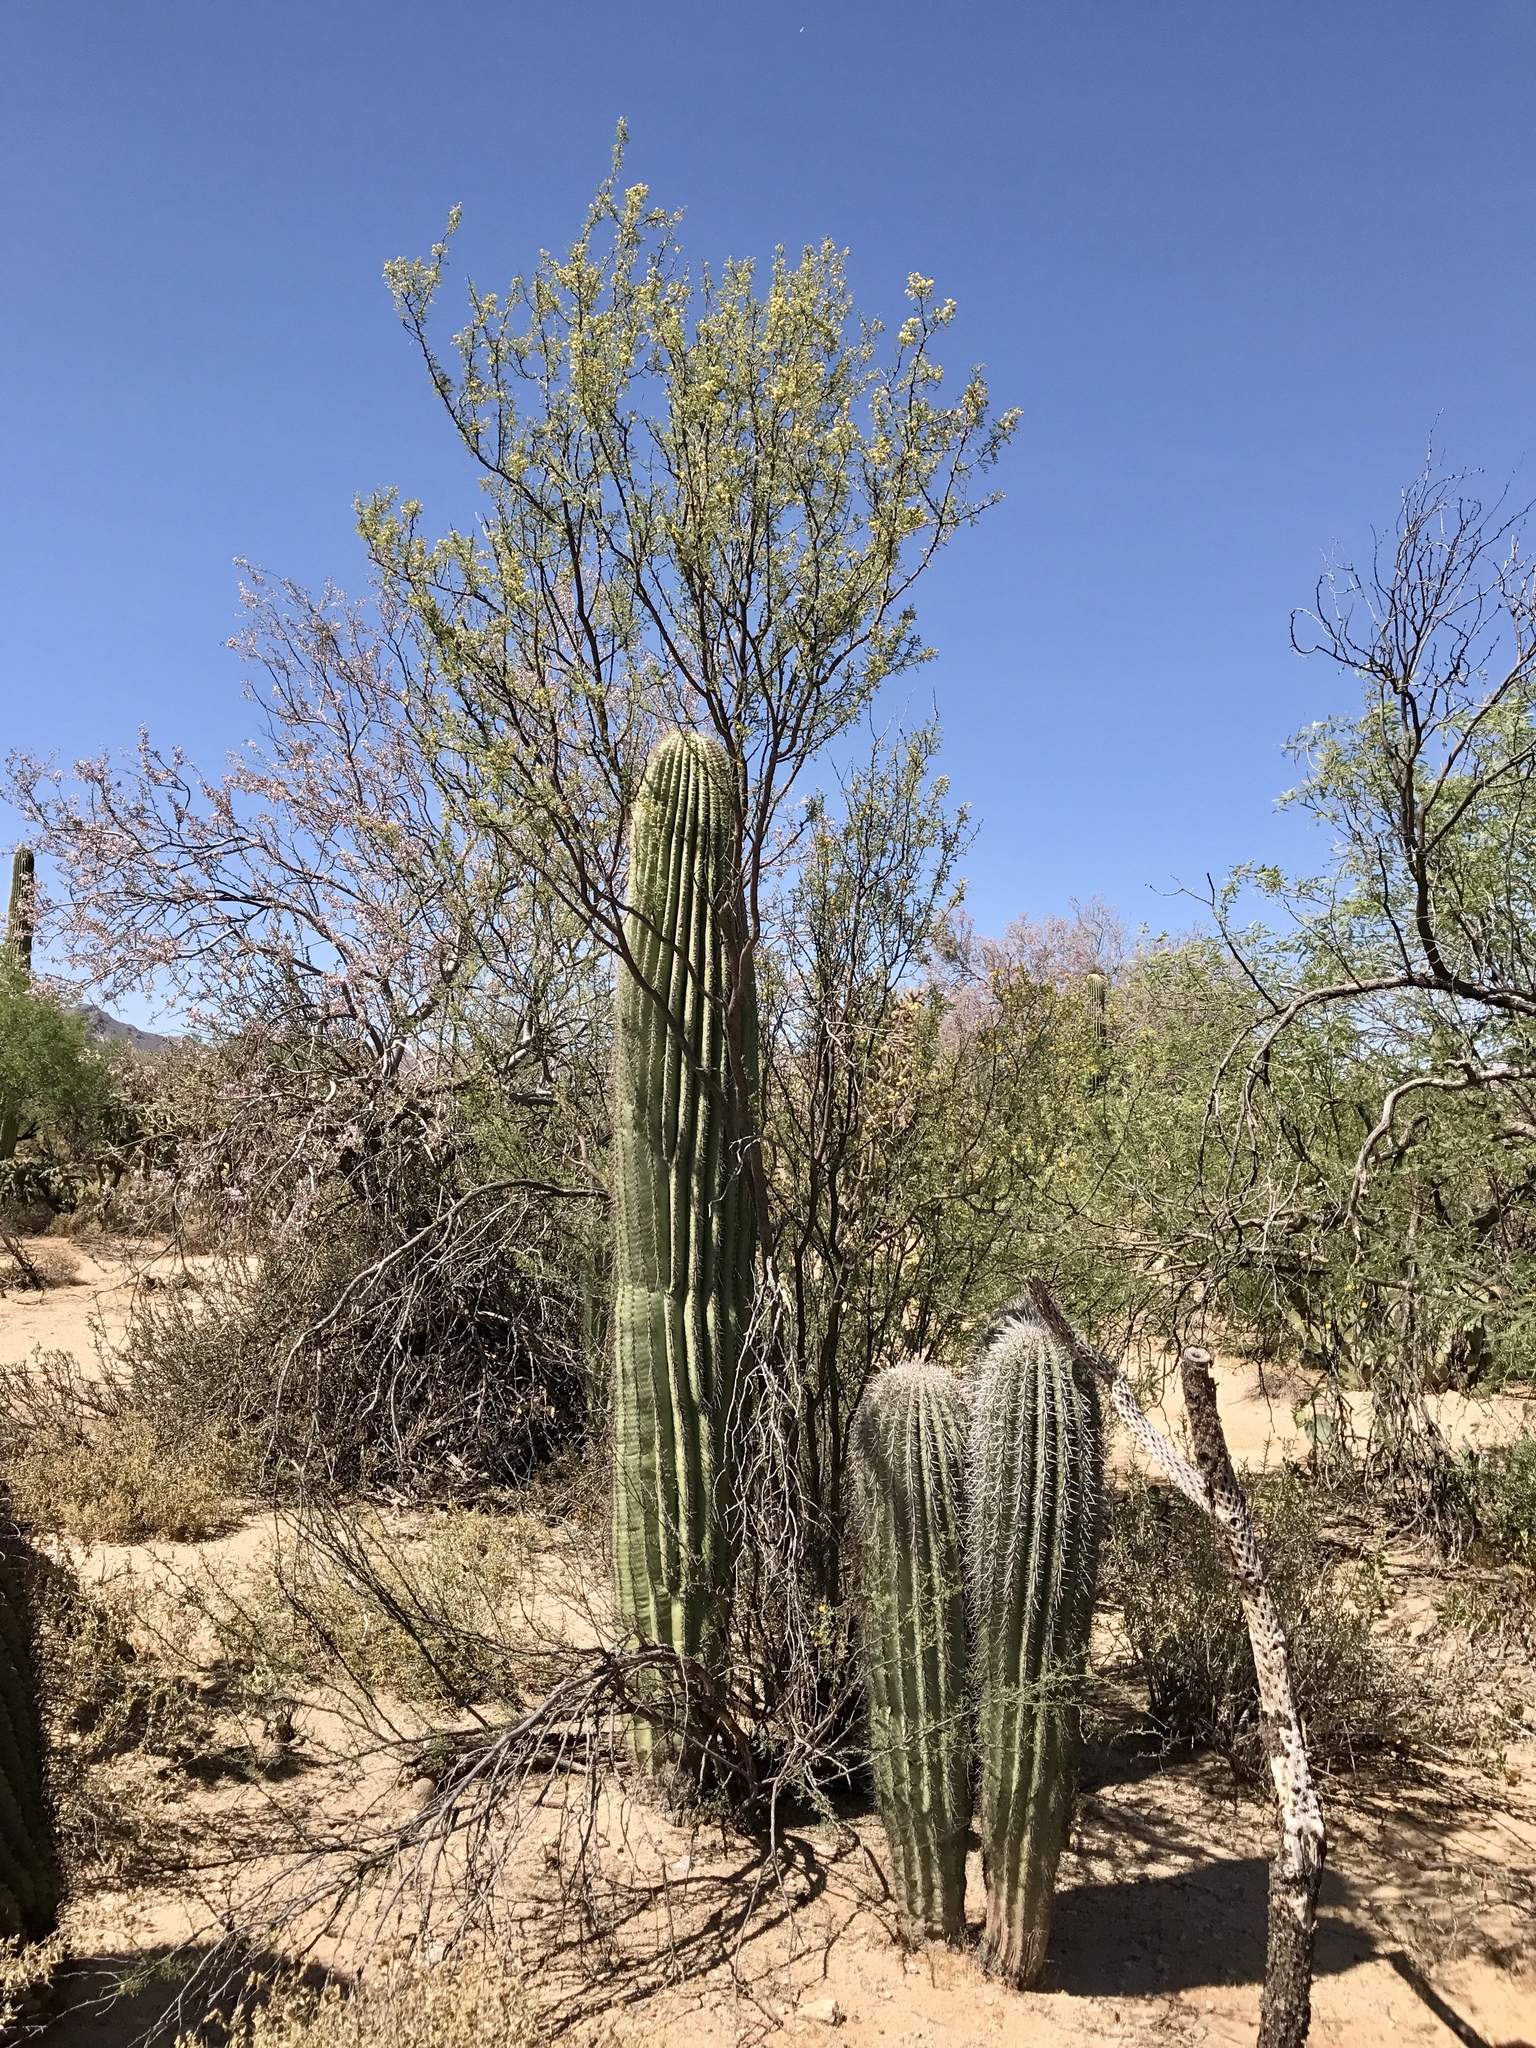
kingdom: Plantae
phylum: Tracheophyta
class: Magnoliopsida
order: Caryophyllales
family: Cactaceae
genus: Carnegiea
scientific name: Carnegiea gigantea
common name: Saguaro
